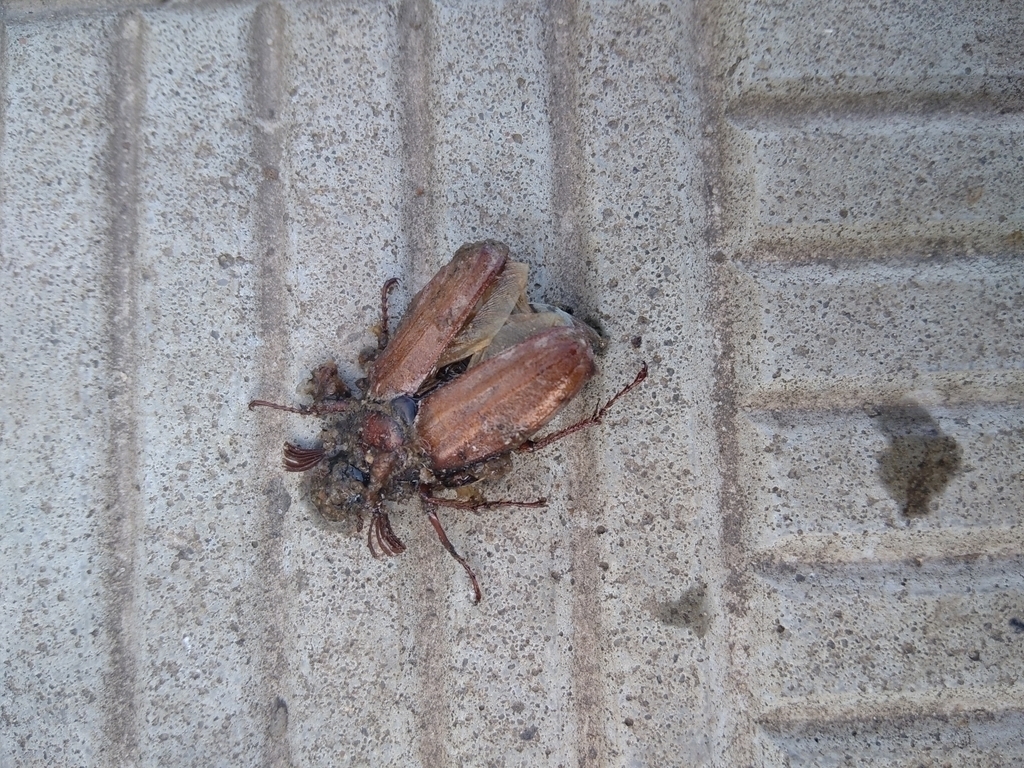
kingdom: Animalia
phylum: Arthropoda
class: Insecta
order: Coleoptera
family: Scarabaeidae
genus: Melolontha
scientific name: Melolontha hippocastani
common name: Chestnut cockchafer
